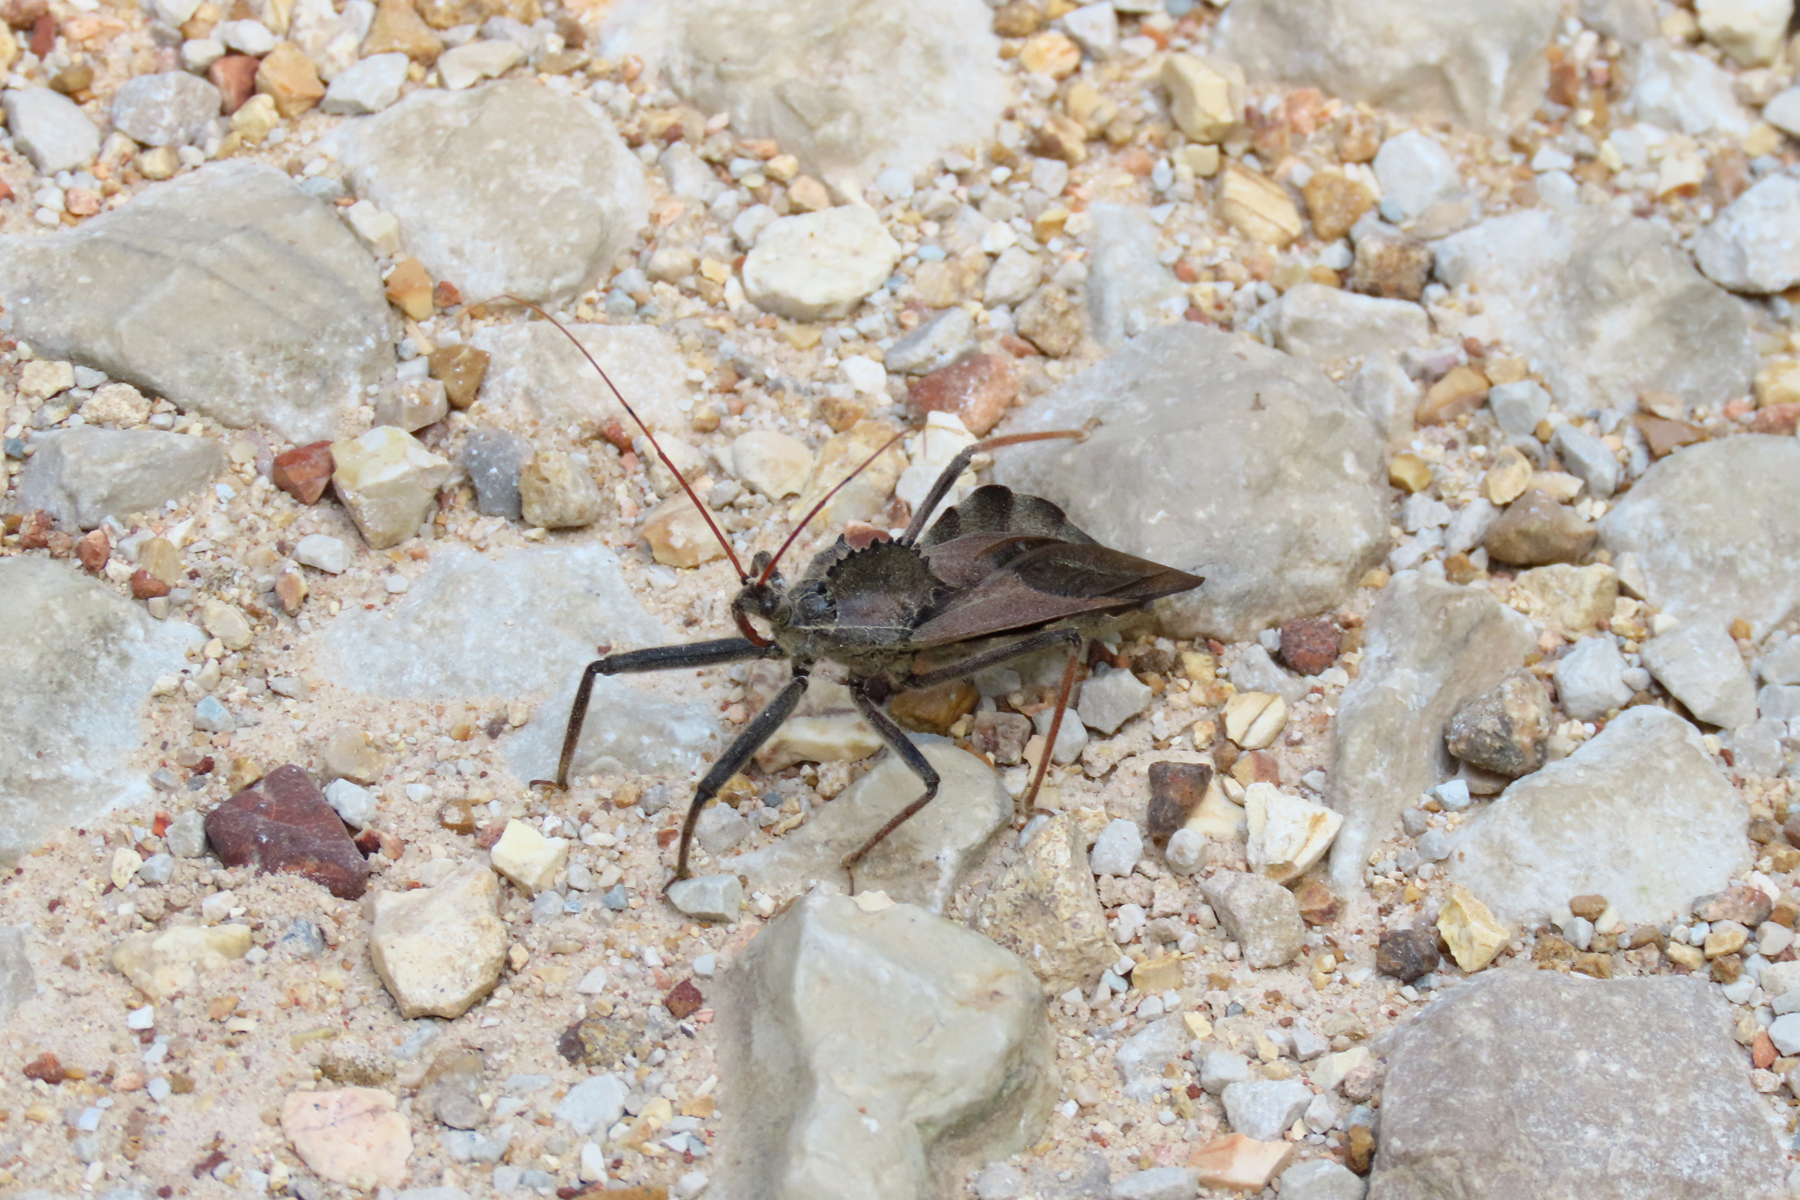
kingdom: Animalia
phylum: Arthropoda
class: Insecta
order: Hemiptera
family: Reduviidae
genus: Arilus
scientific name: Arilus cristatus
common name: North american wheel bug
